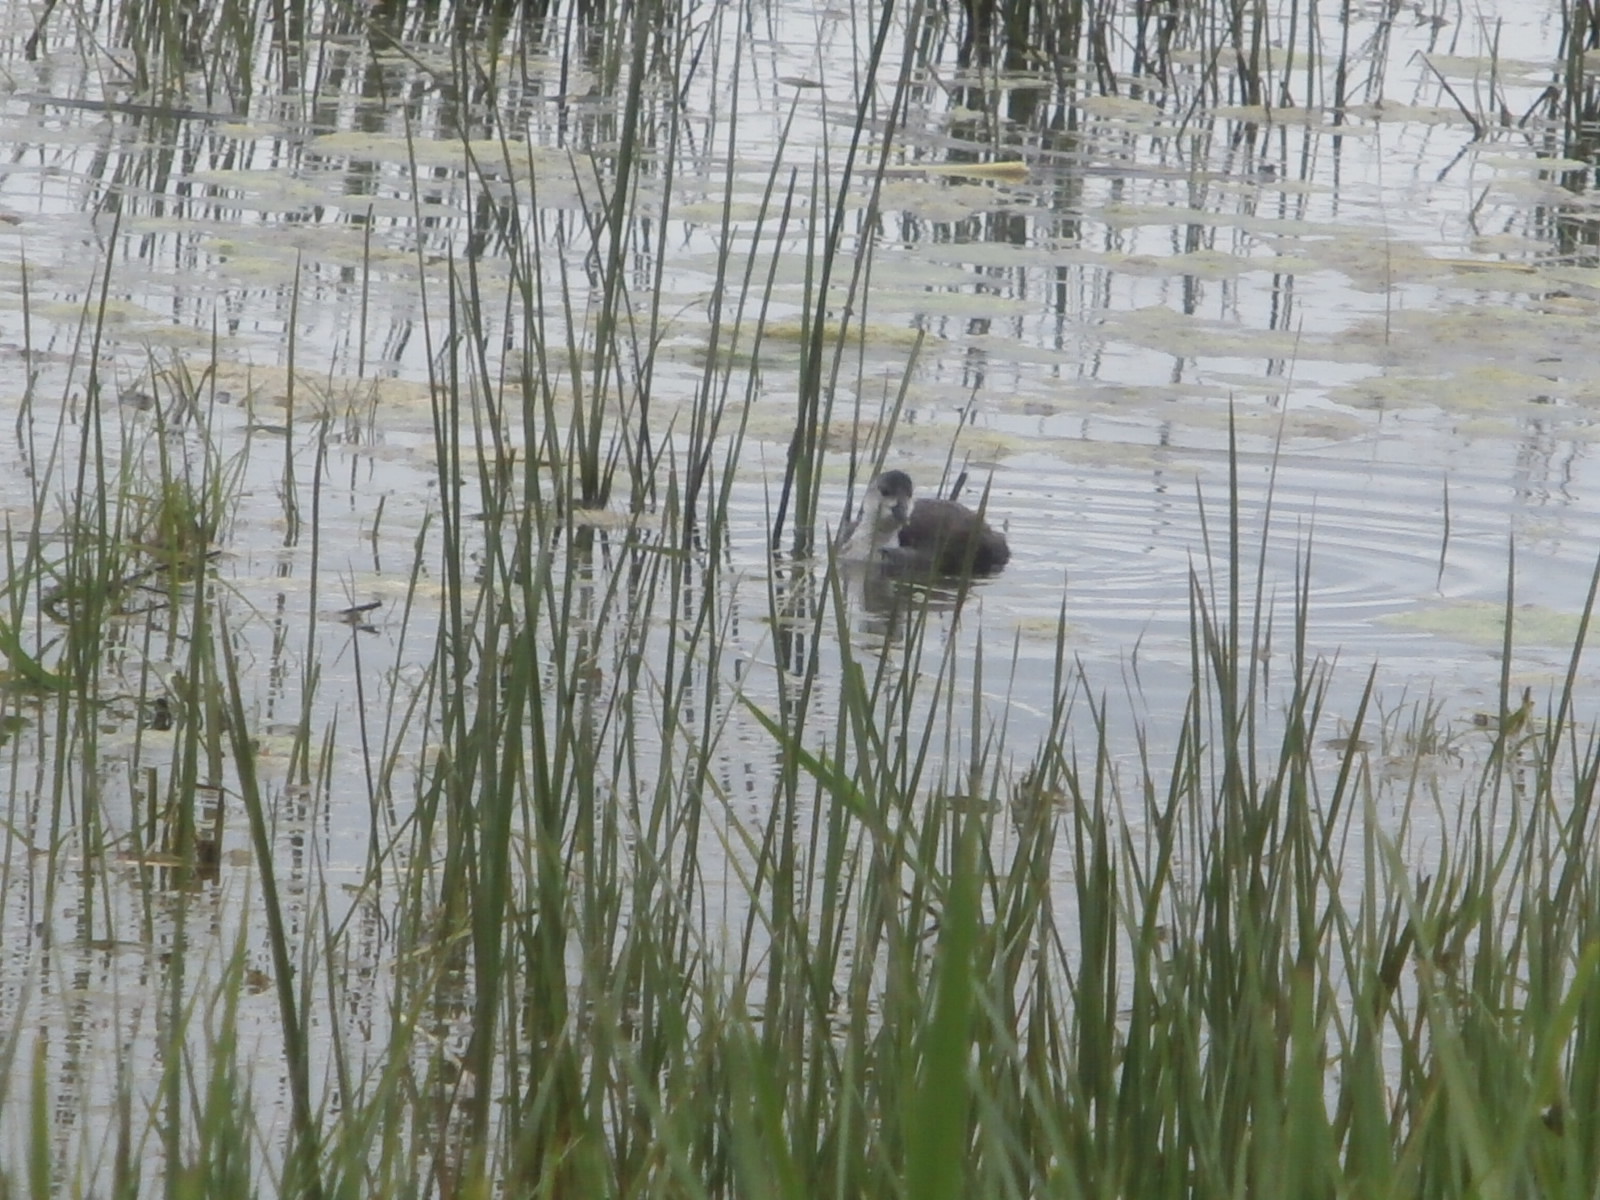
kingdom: Animalia
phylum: Chordata
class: Aves
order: Gruiformes
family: Rallidae
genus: Fulica
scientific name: Fulica atra
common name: Eurasian coot
